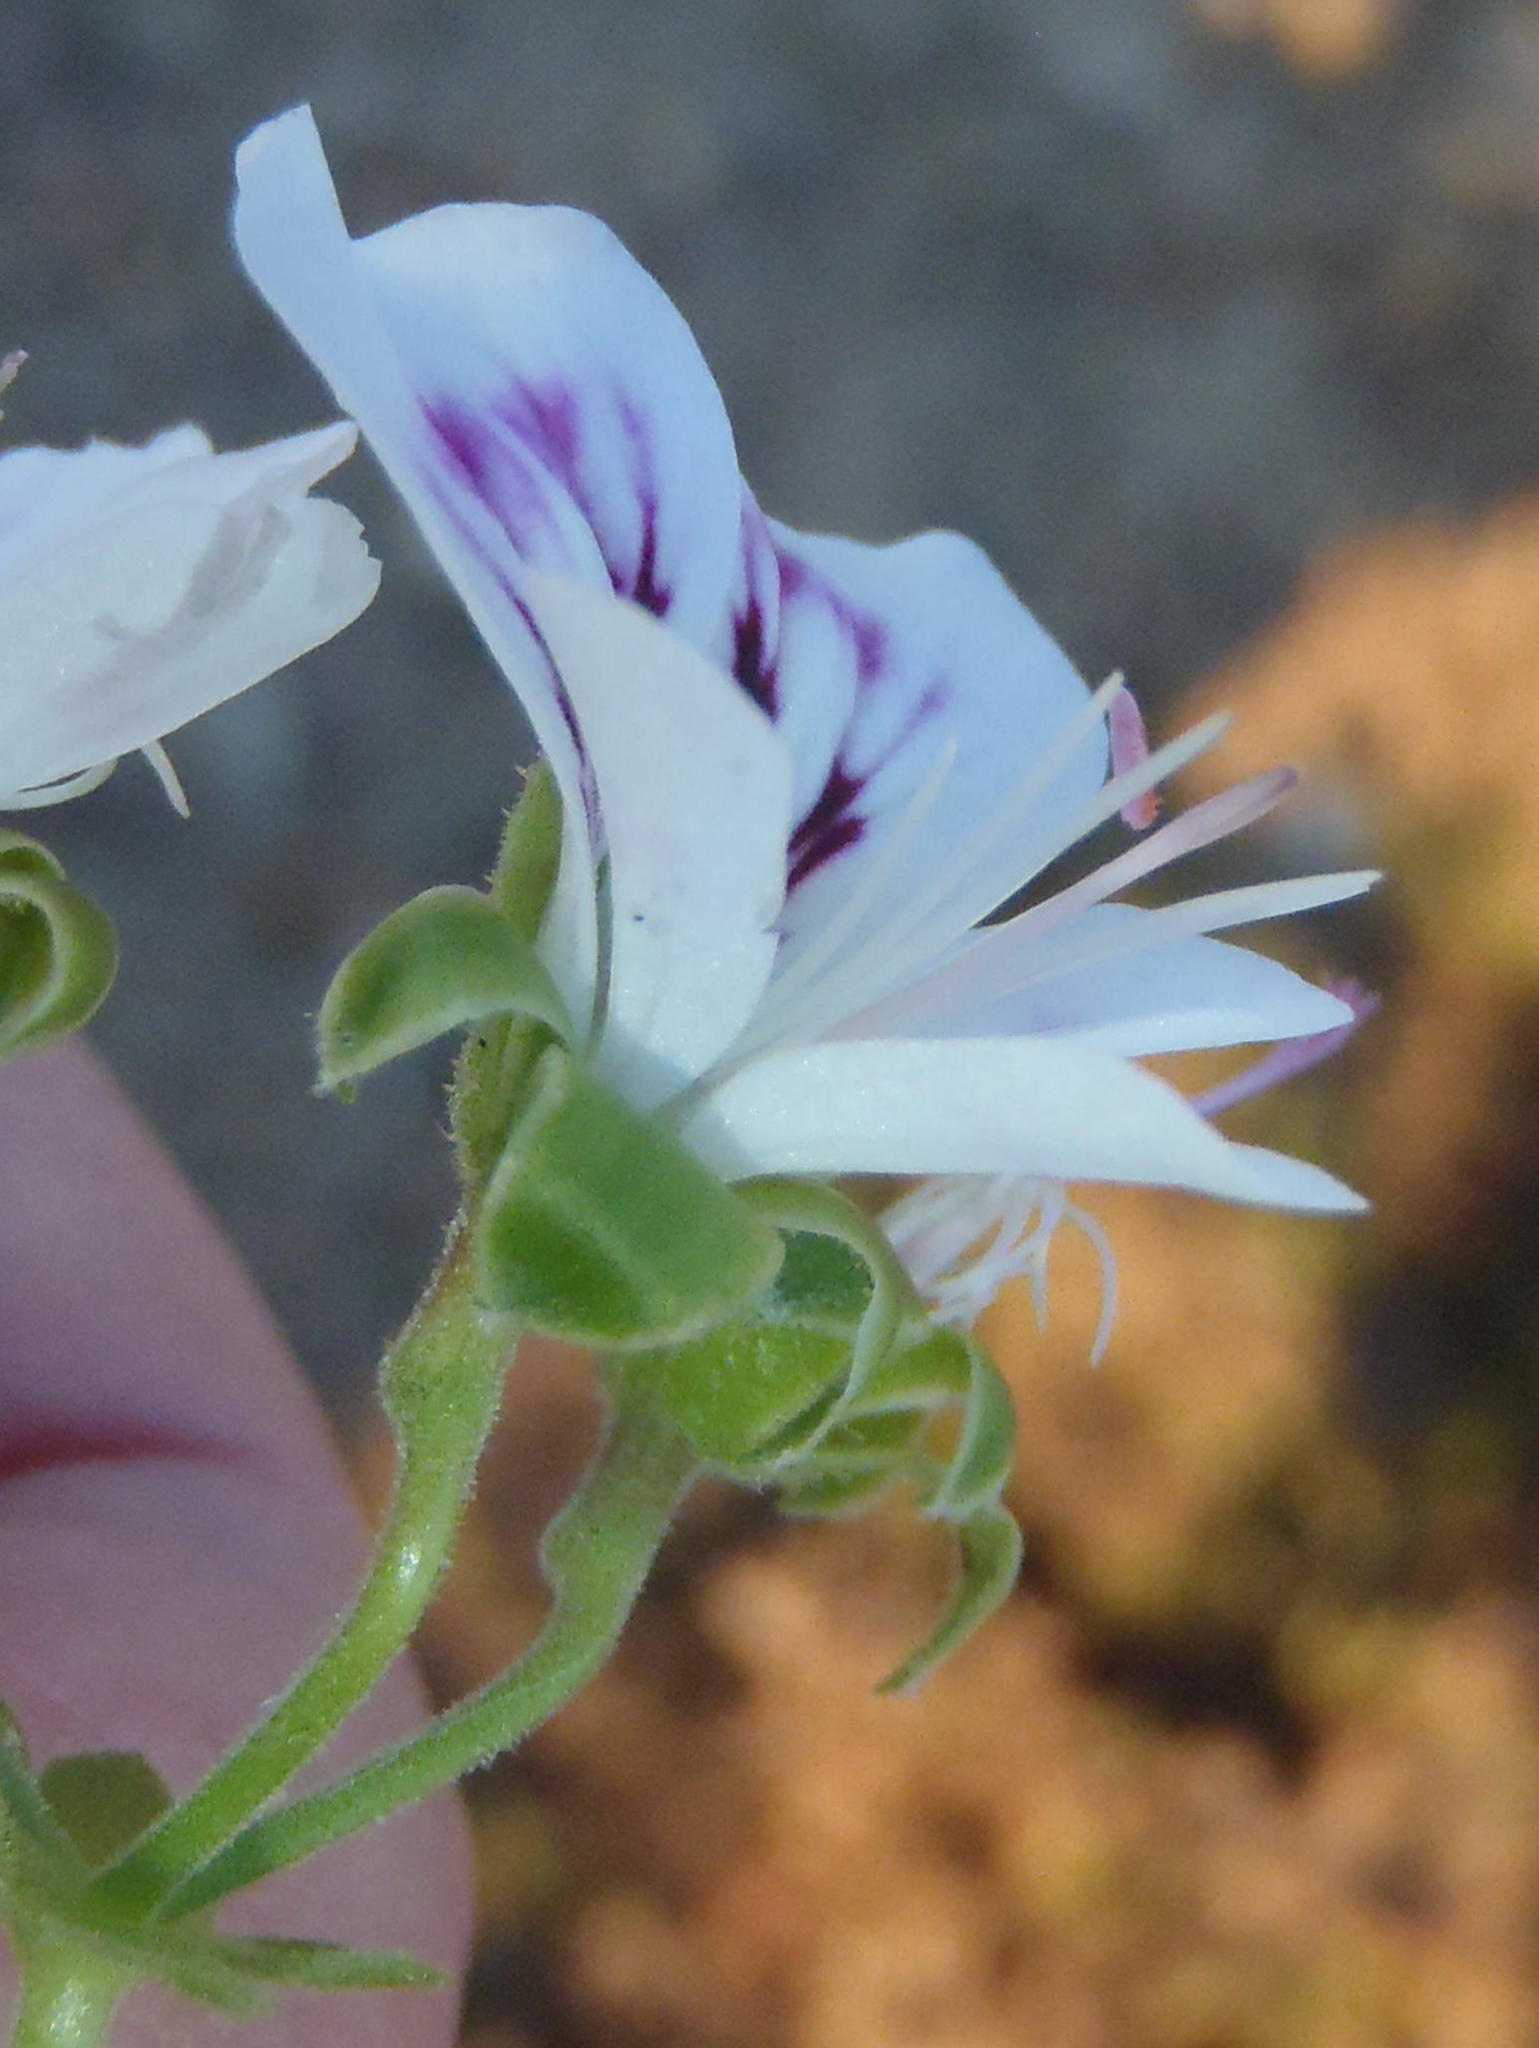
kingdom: Plantae
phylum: Tracheophyta
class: Magnoliopsida
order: Geraniales
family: Geraniaceae
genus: Pelargonium
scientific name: Pelargonium englerianum
